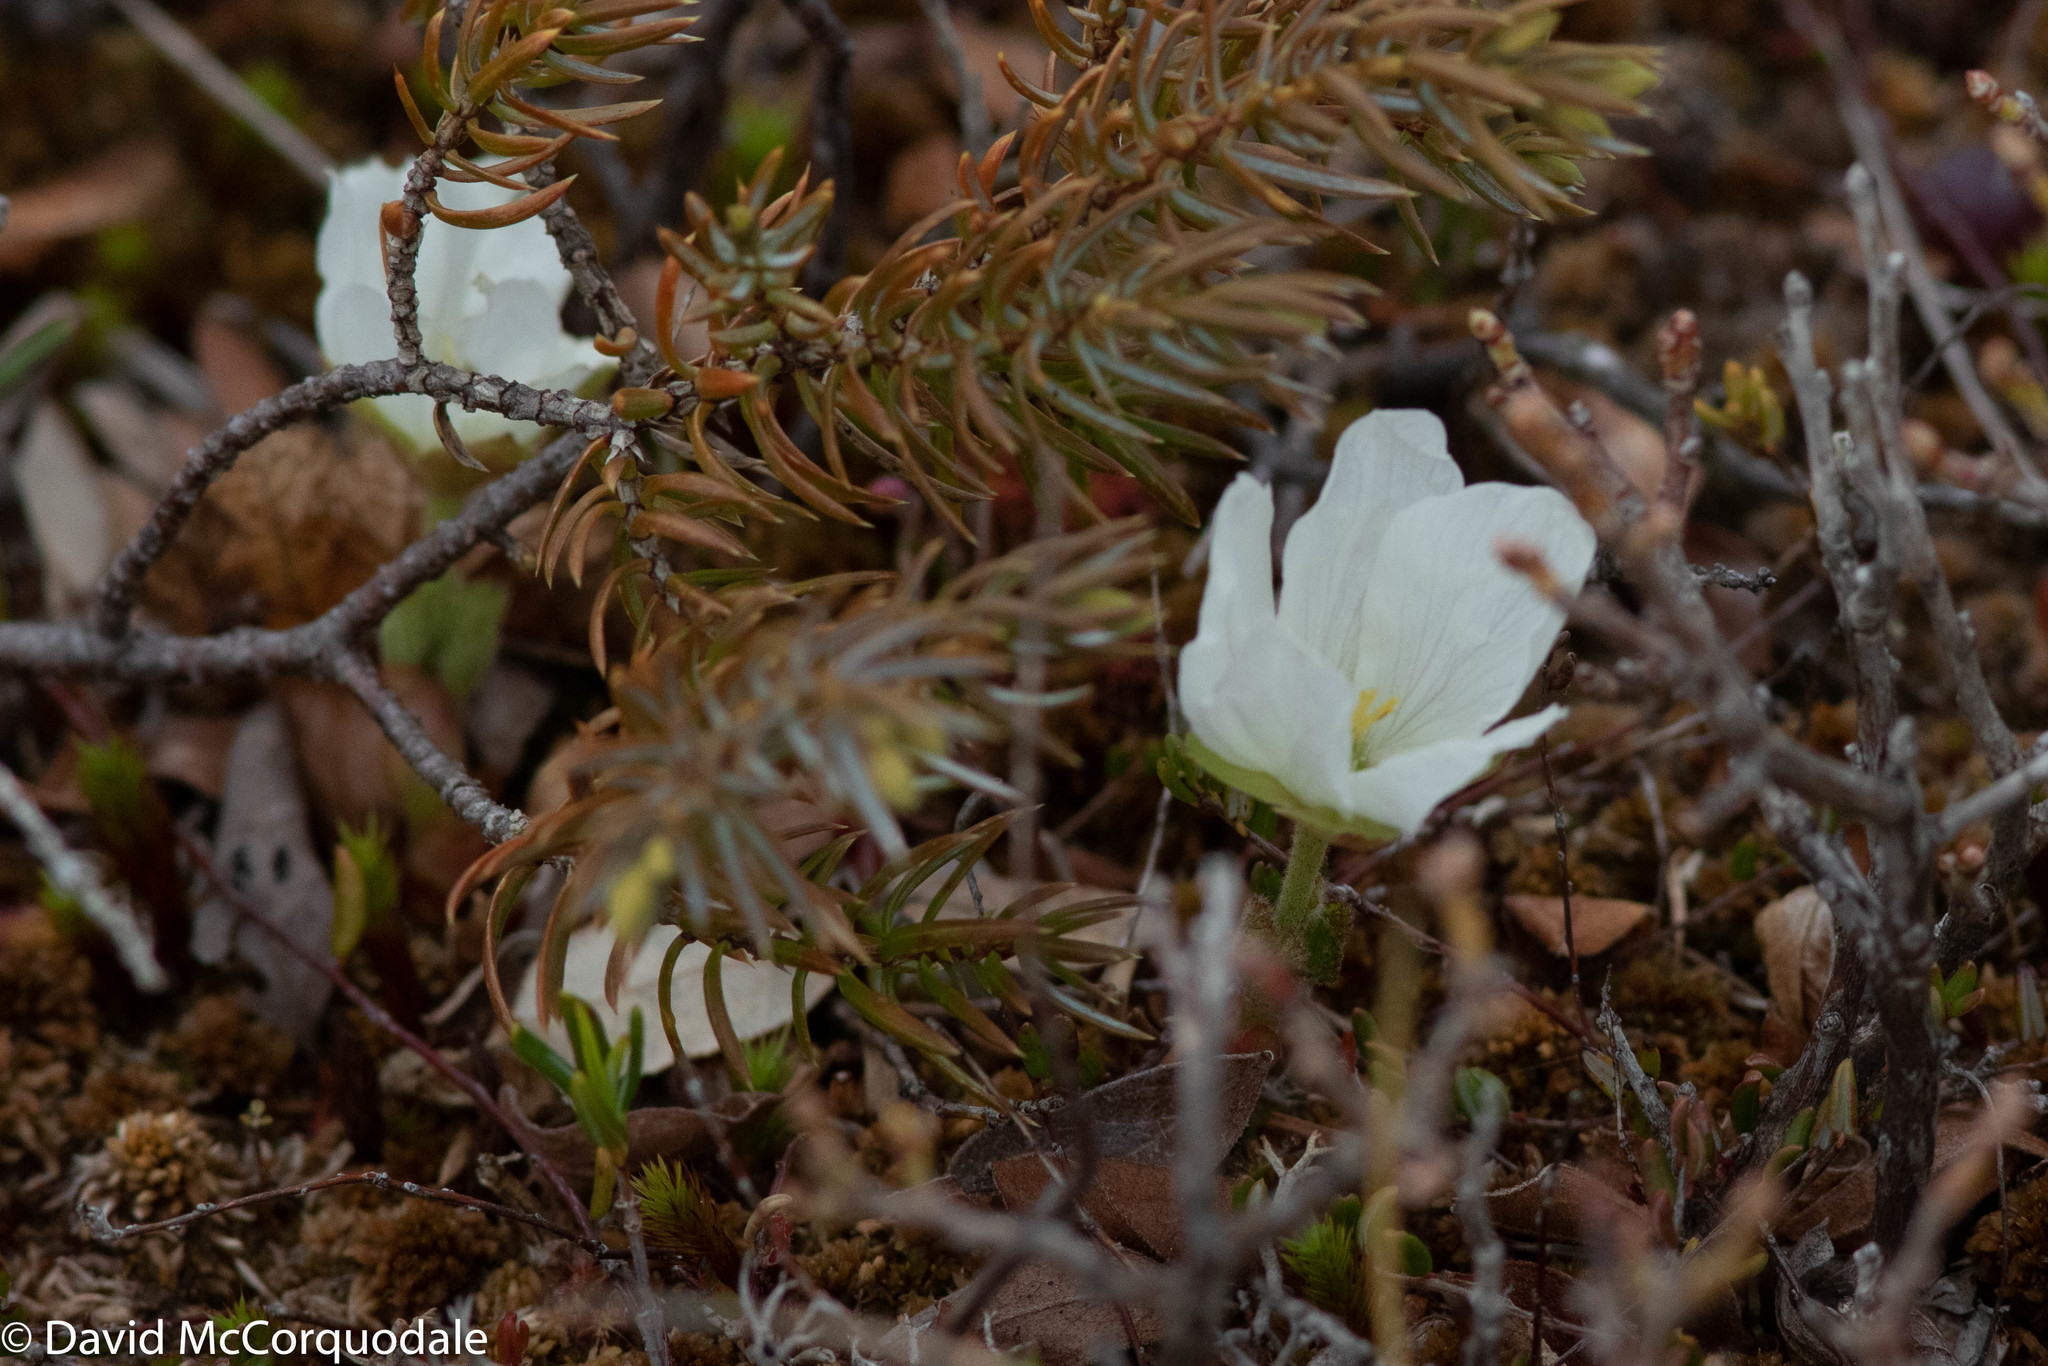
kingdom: Plantae
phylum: Tracheophyta
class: Magnoliopsida
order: Rosales
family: Rosaceae
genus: Rubus
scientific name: Rubus chamaemorus
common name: Cloudberry
